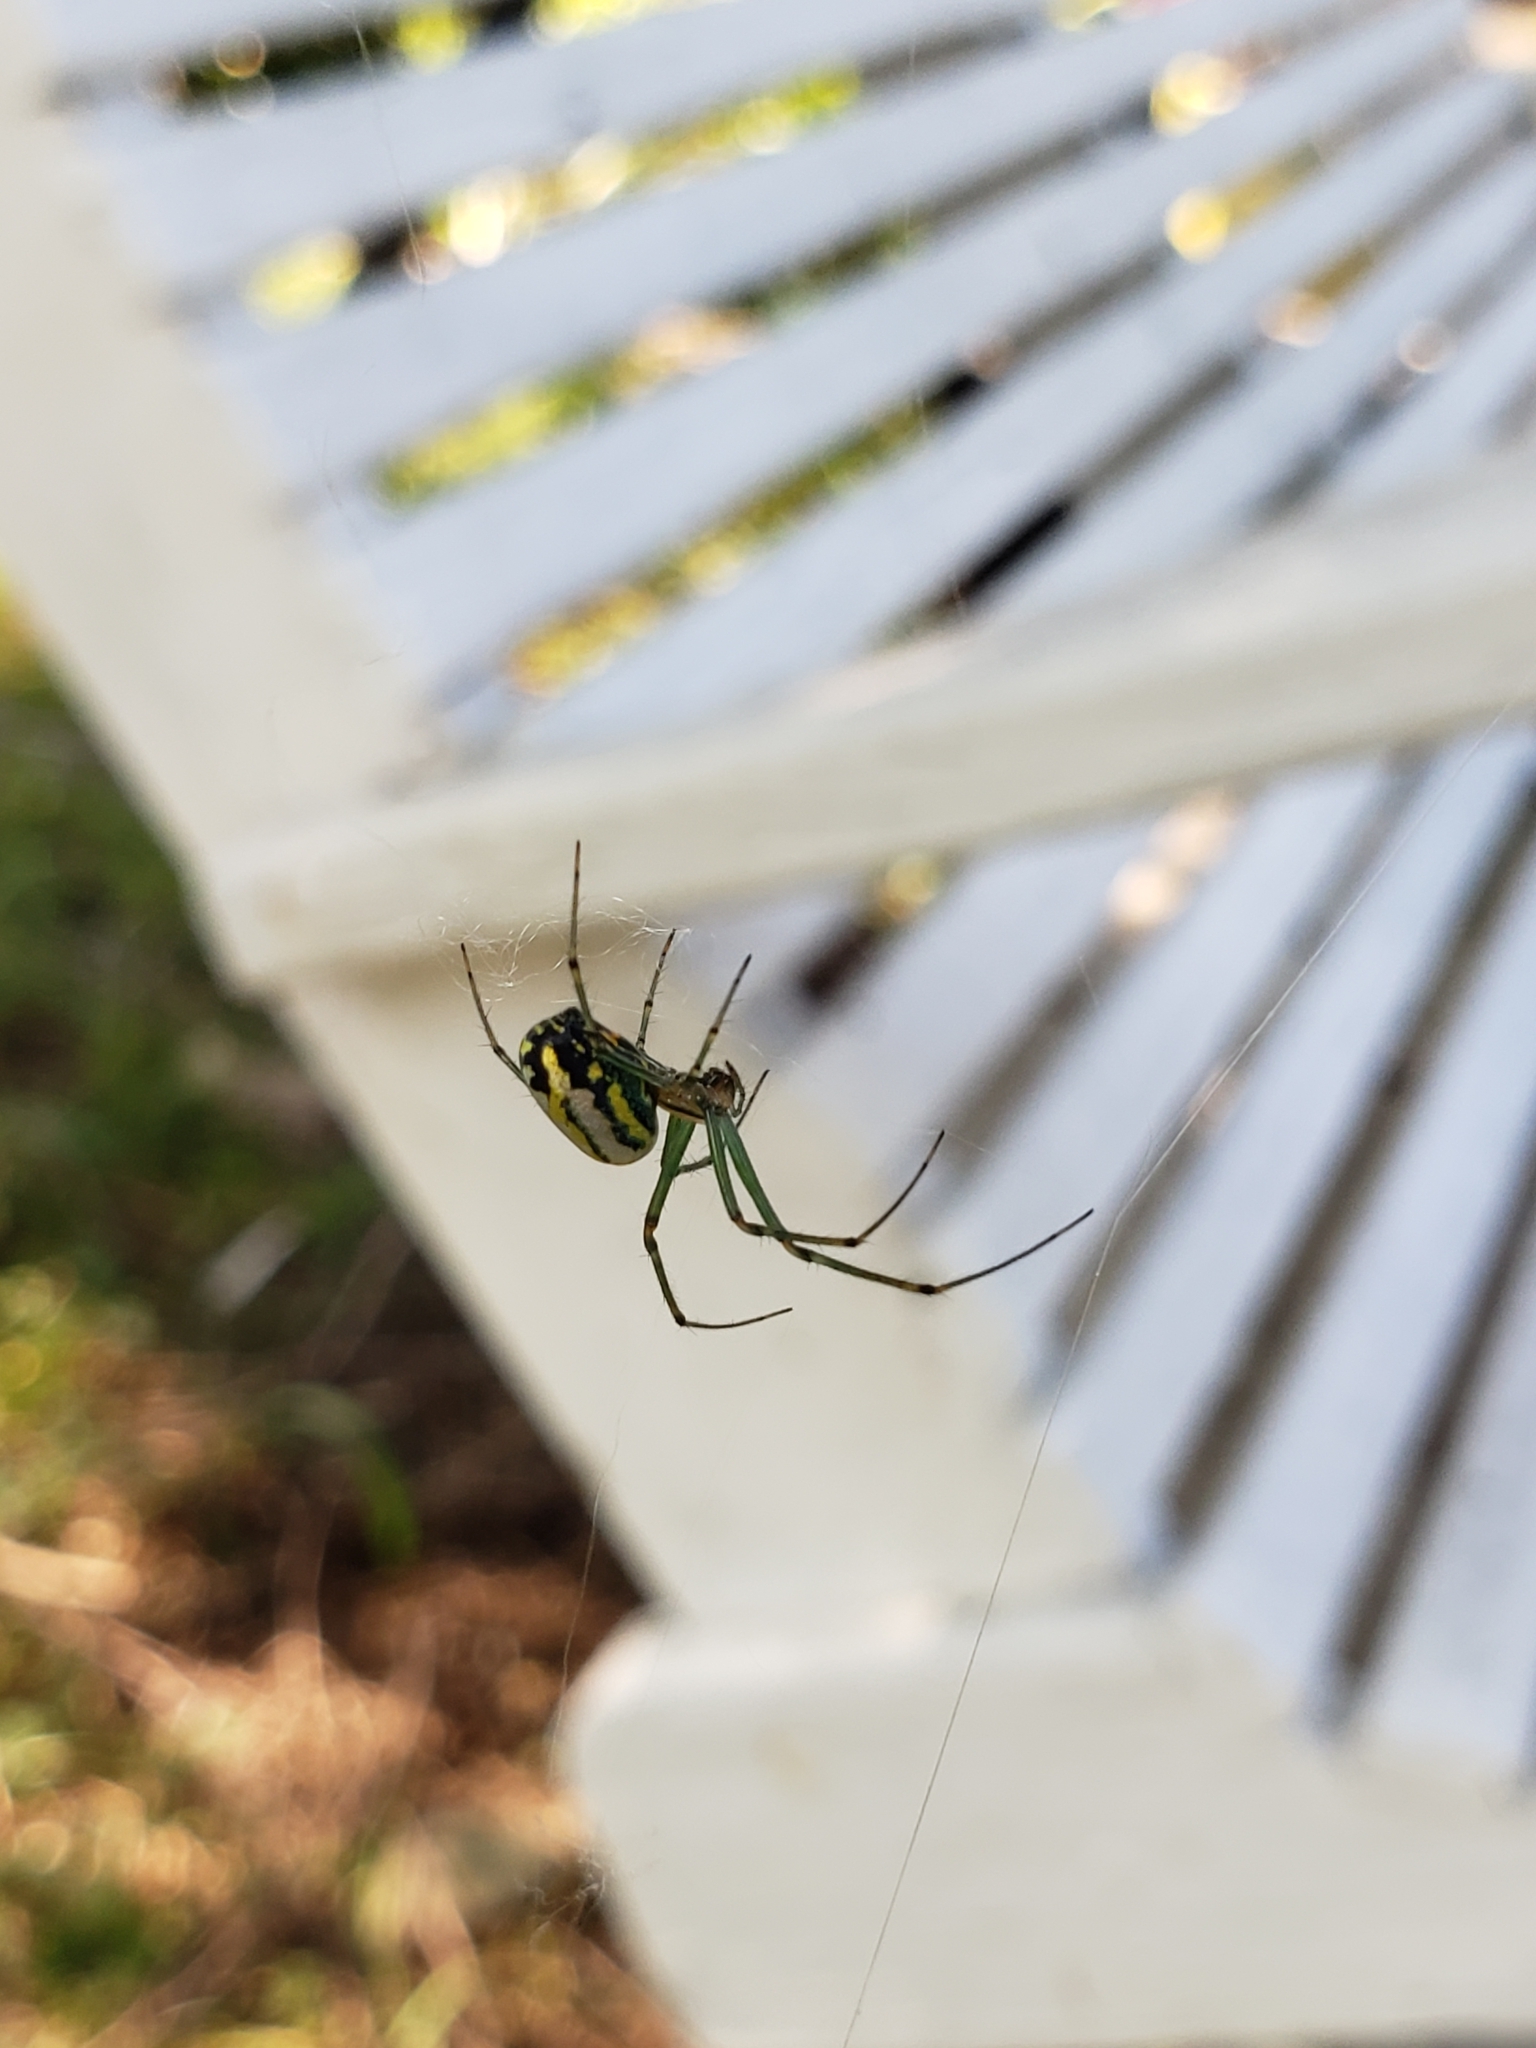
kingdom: Animalia
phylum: Arthropoda
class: Arachnida
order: Araneae
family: Tetragnathidae
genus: Leucauge
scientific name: Leucauge venusta
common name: Longjawed orb weavers
